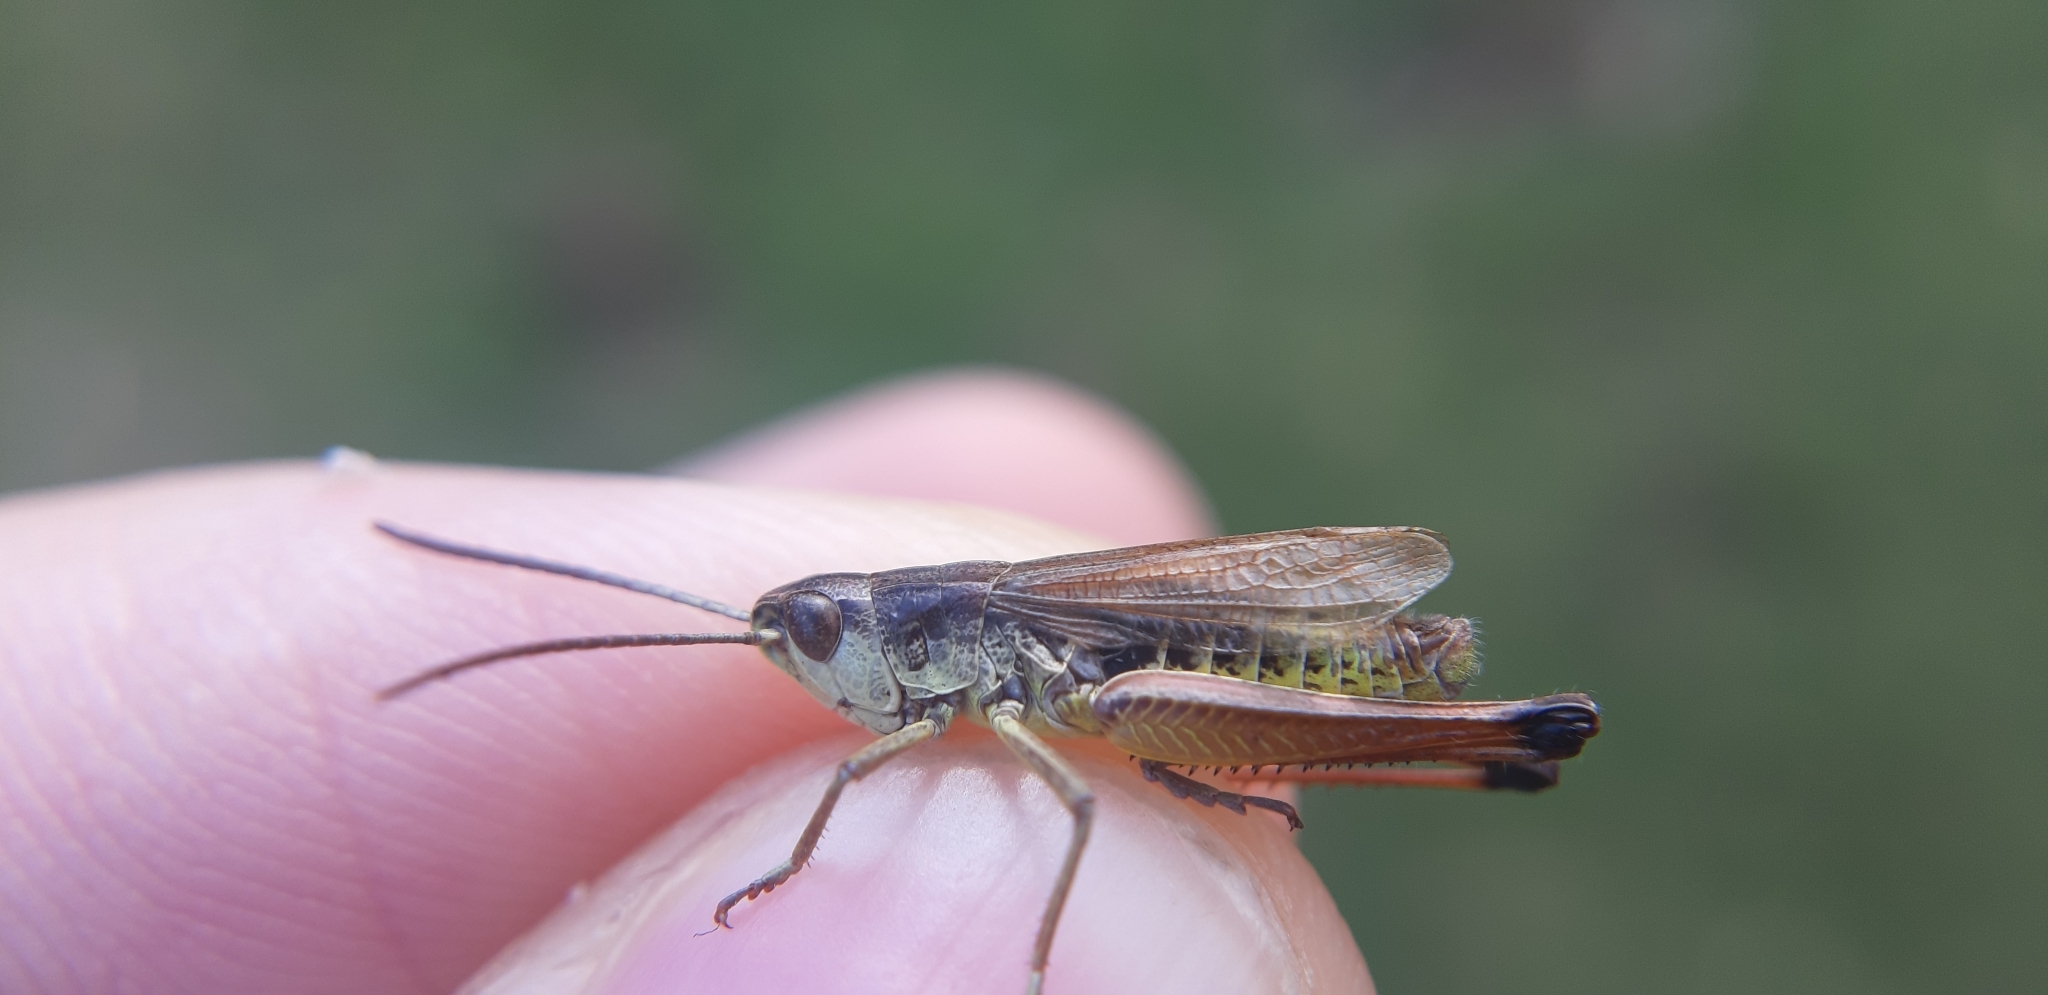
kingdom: Animalia
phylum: Arthropoda
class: Insecta
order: Orthoptera
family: Acrididae
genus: Pseudochorthippus
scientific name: Pseudochorthippus parallelus
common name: Meadow grasshopper
